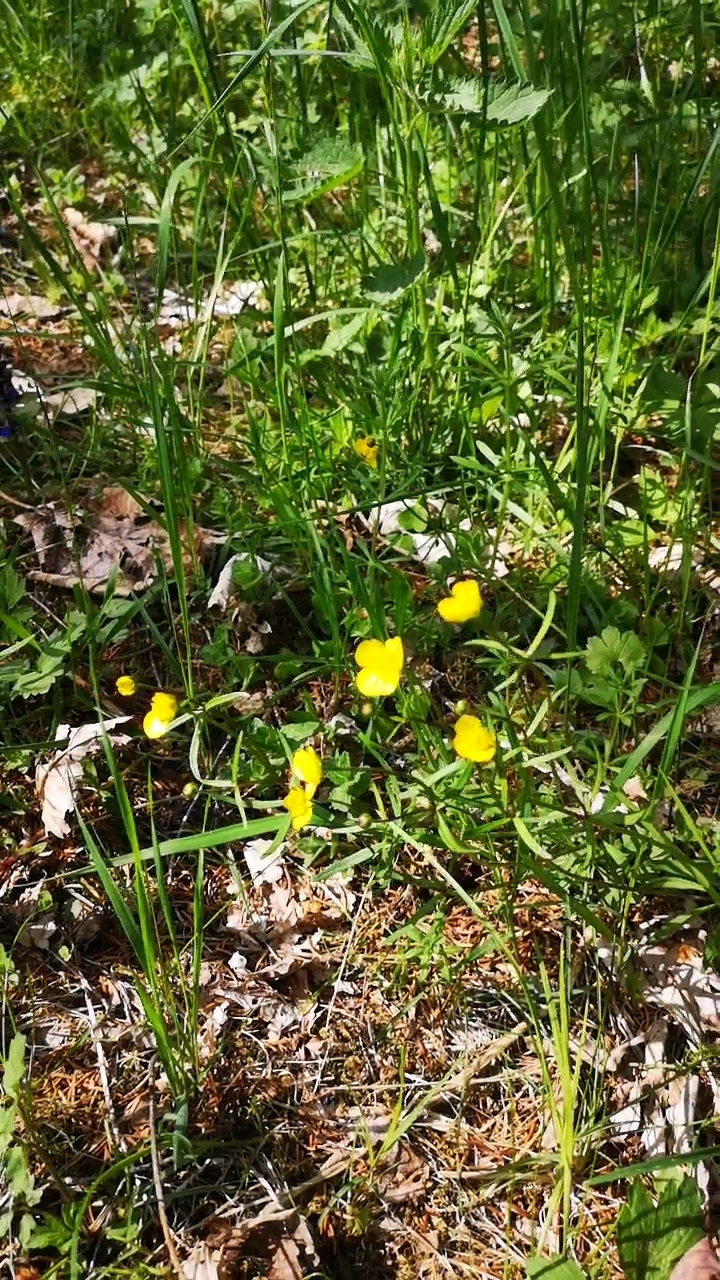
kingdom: Plantae
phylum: Tracheophyta
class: Magnoliopsida
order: Ranunculales
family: Ranunculaceae
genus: Ranunculus
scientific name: Ranunculus auricomus
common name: Goldilocks buttercup
